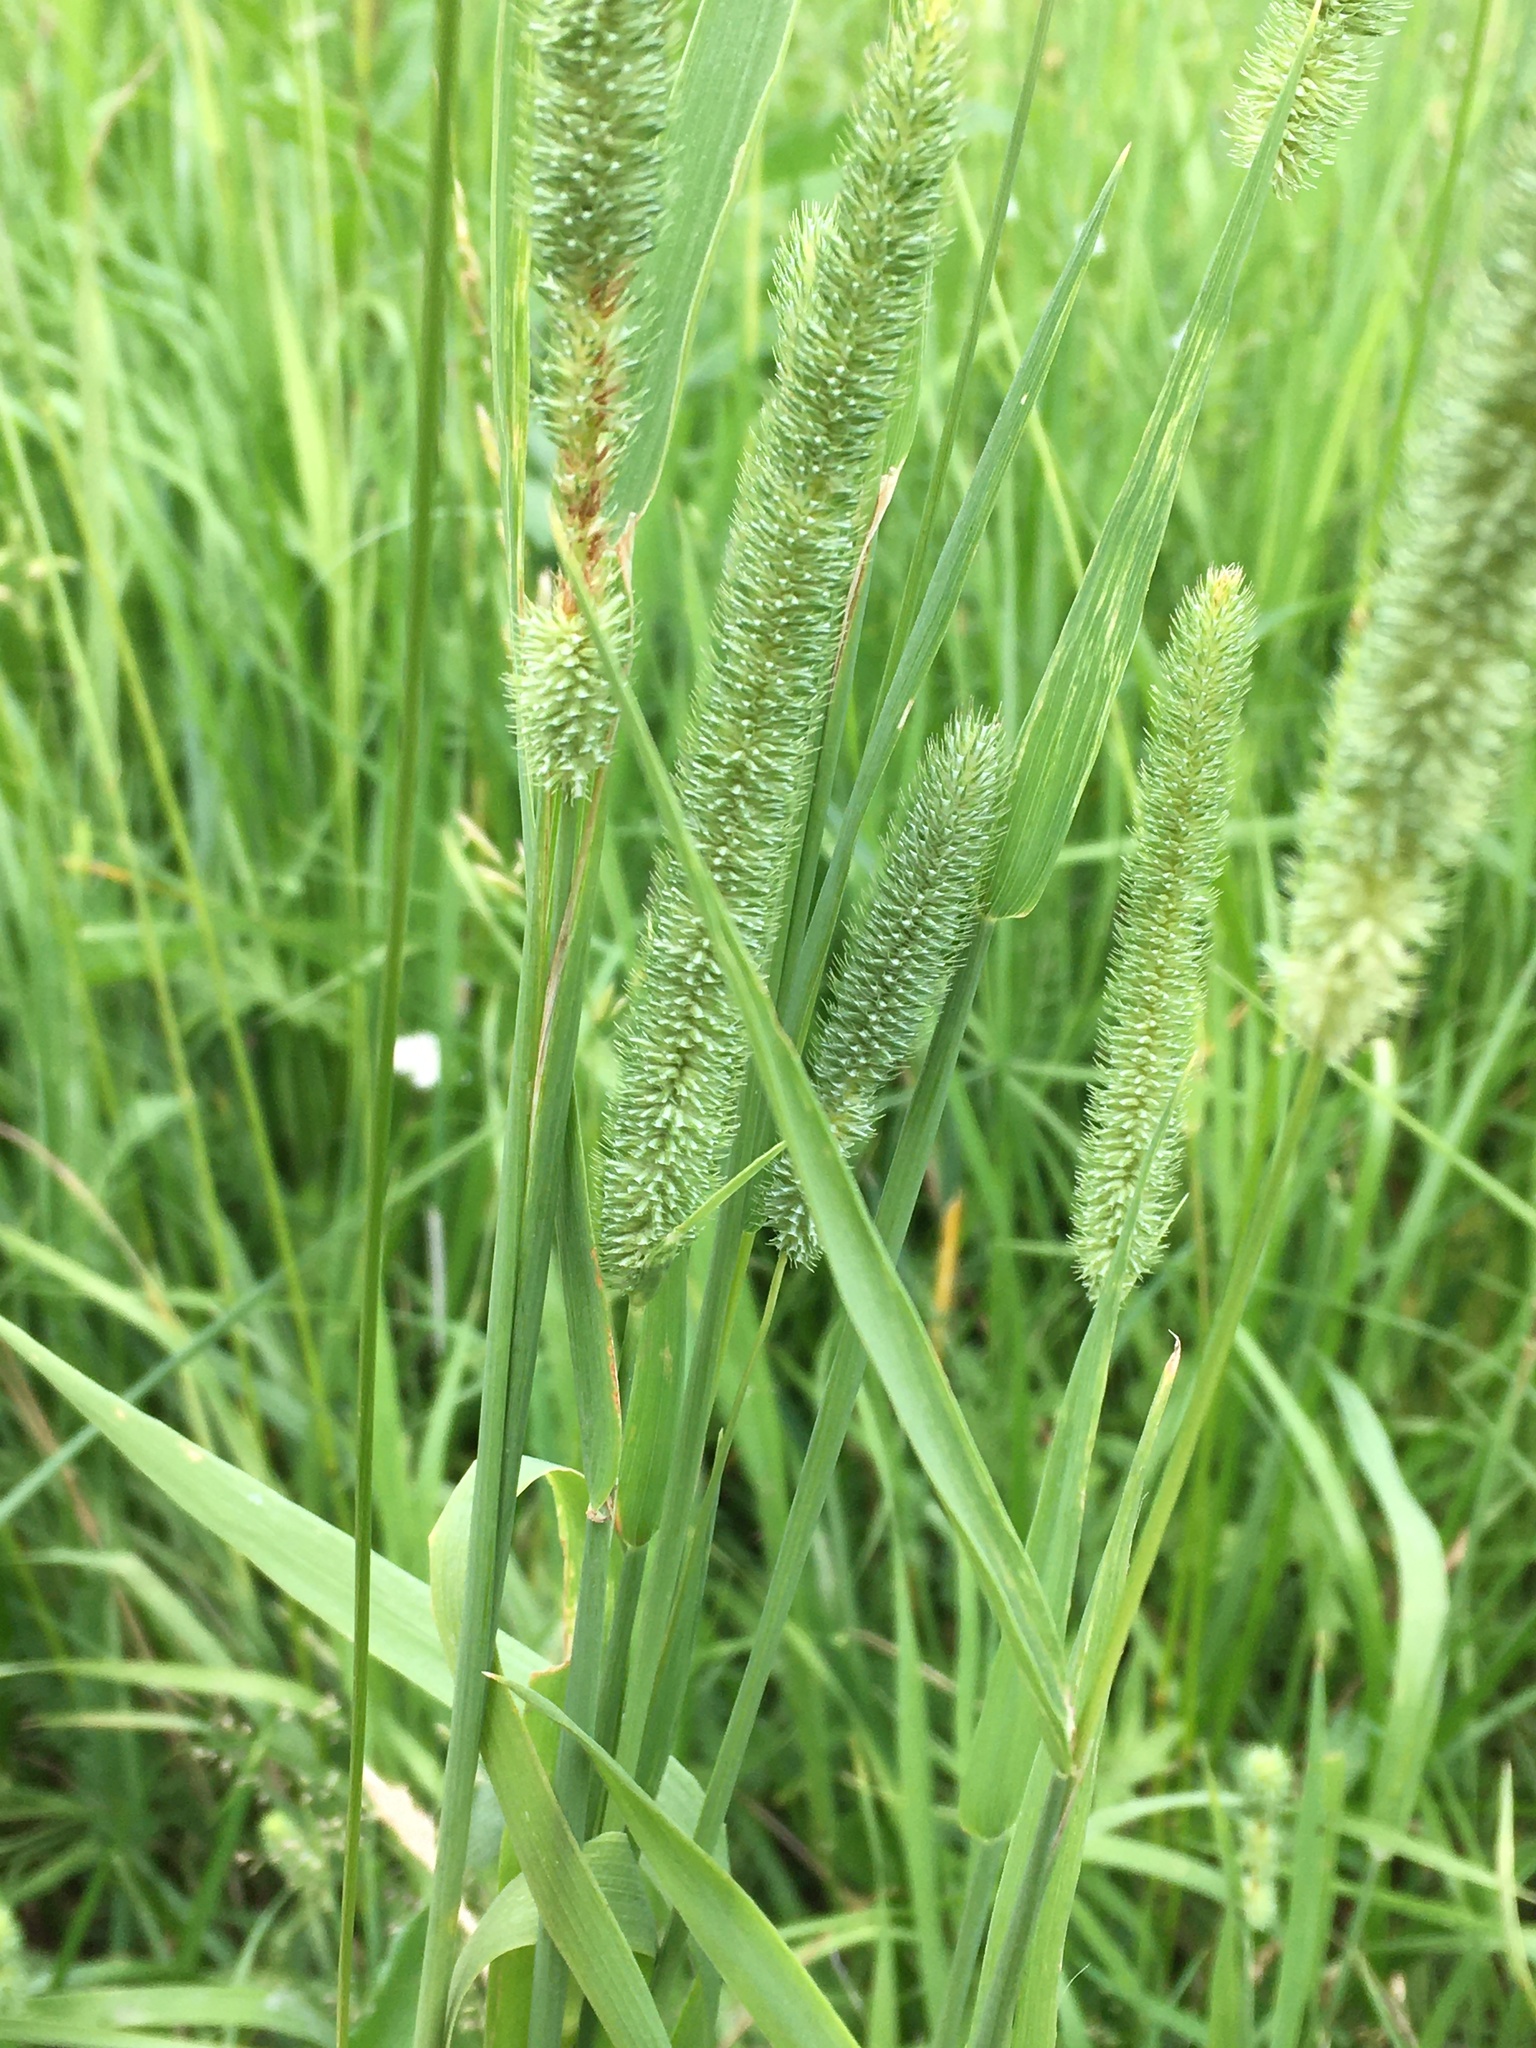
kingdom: Plantae
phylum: Tracheophyta
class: Liliopsida
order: Poales
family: Poaceae
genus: Phleum
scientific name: Phleum pratense
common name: Timothy grass
